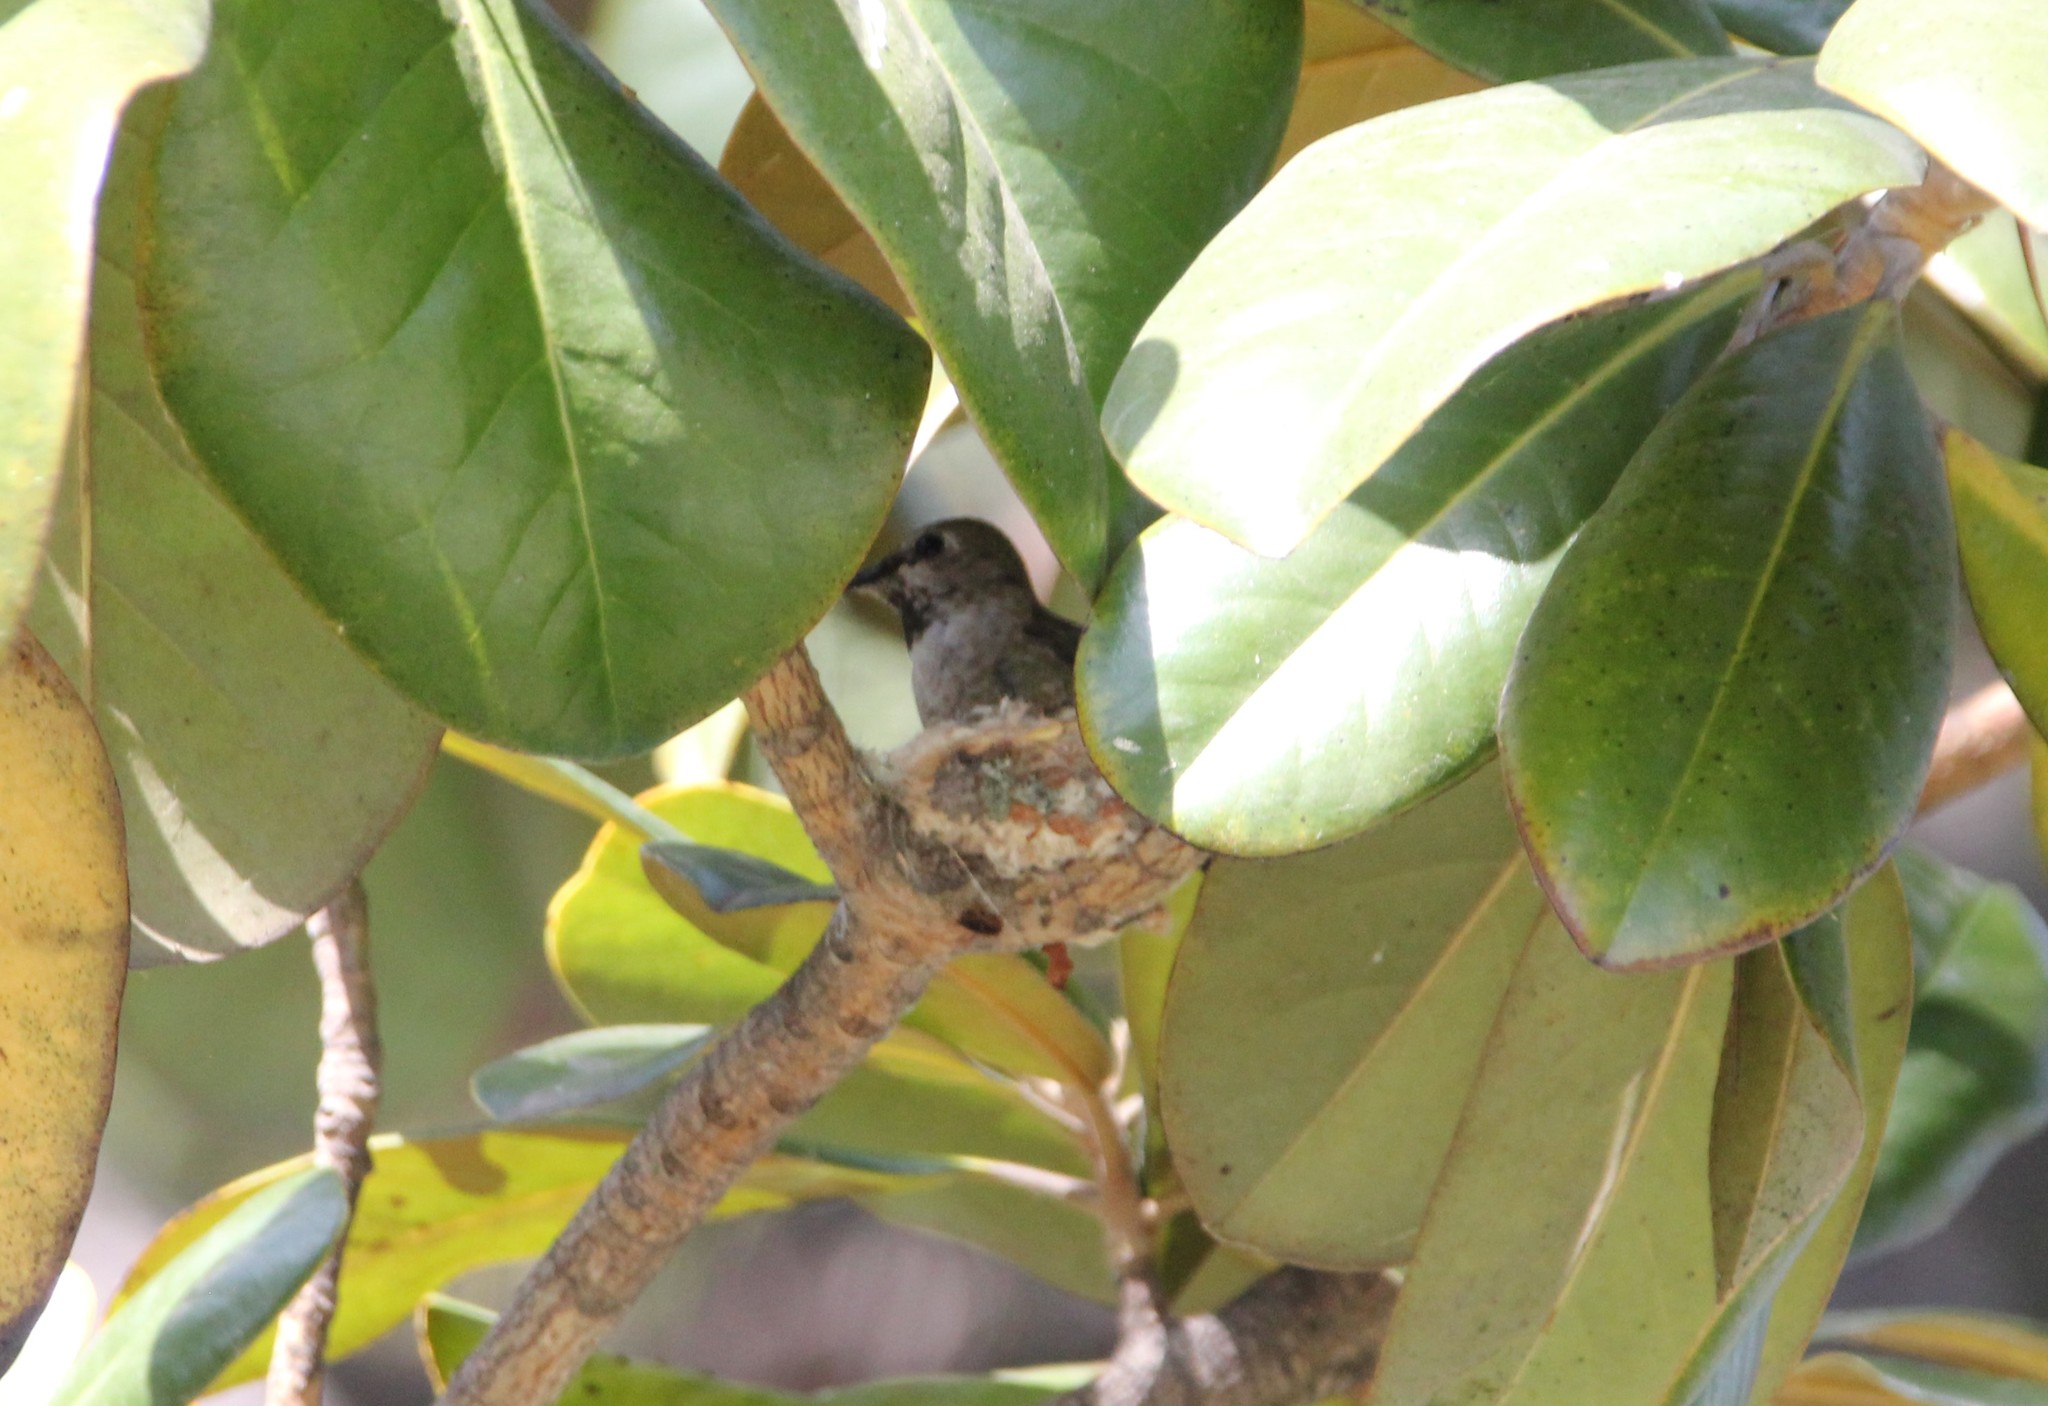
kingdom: Animalia
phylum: Chordata
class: Aves
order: Apodiformes
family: Trochilidae
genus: Calypte
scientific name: Calypte anna
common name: Anna's hummingbird
